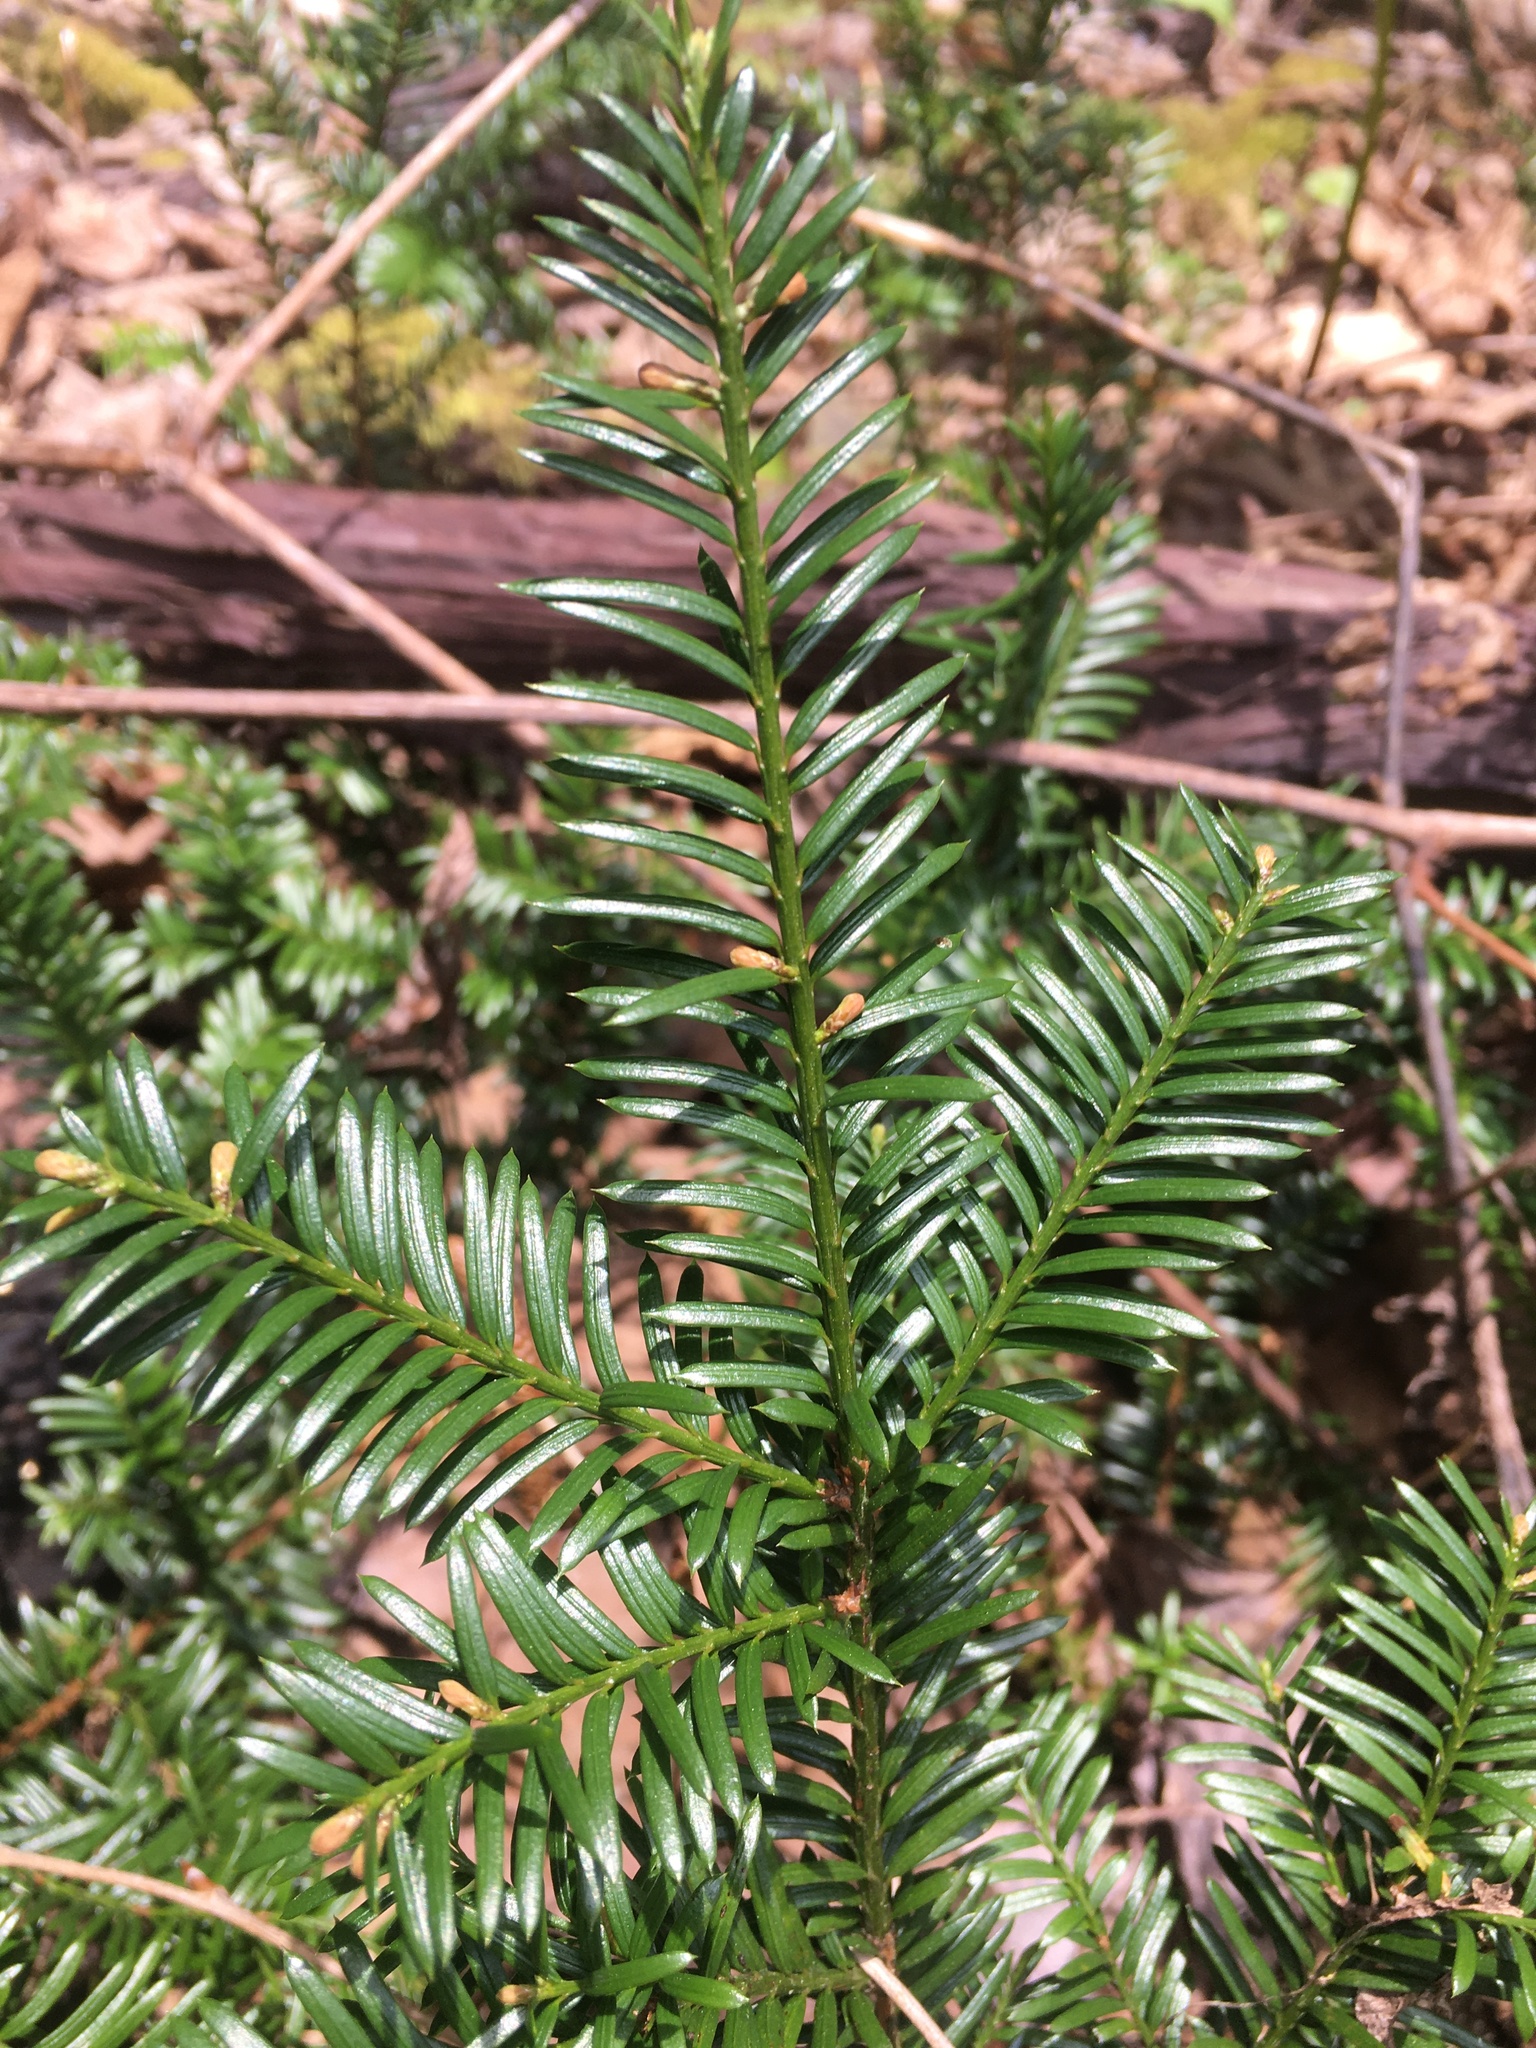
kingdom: Plantae
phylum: Tracheophyta
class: Pinopsida
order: Pinales
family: Taxaceae
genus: Taxus
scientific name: Taxus canadensis
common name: American yew
